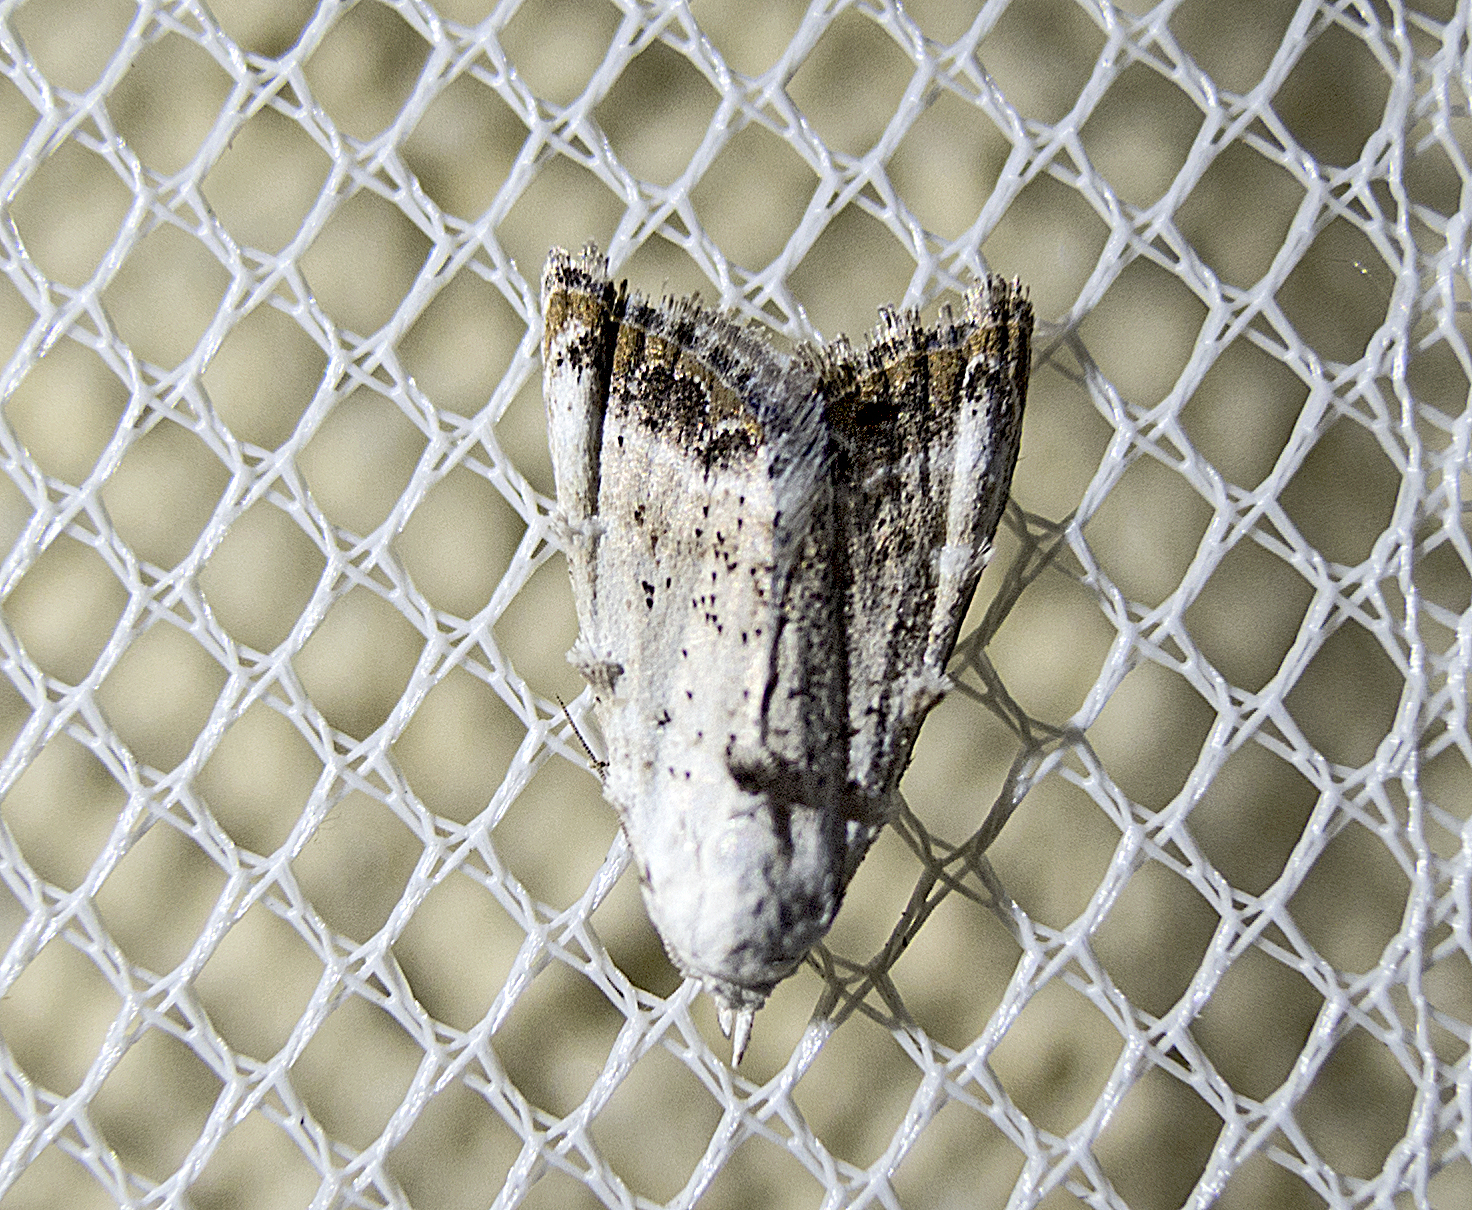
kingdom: Animalia
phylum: Arthropoda
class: Insecta
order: Lepidoptera
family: Nolidae
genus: Nola
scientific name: Nola chlamitulalis
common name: Jersey black arches
